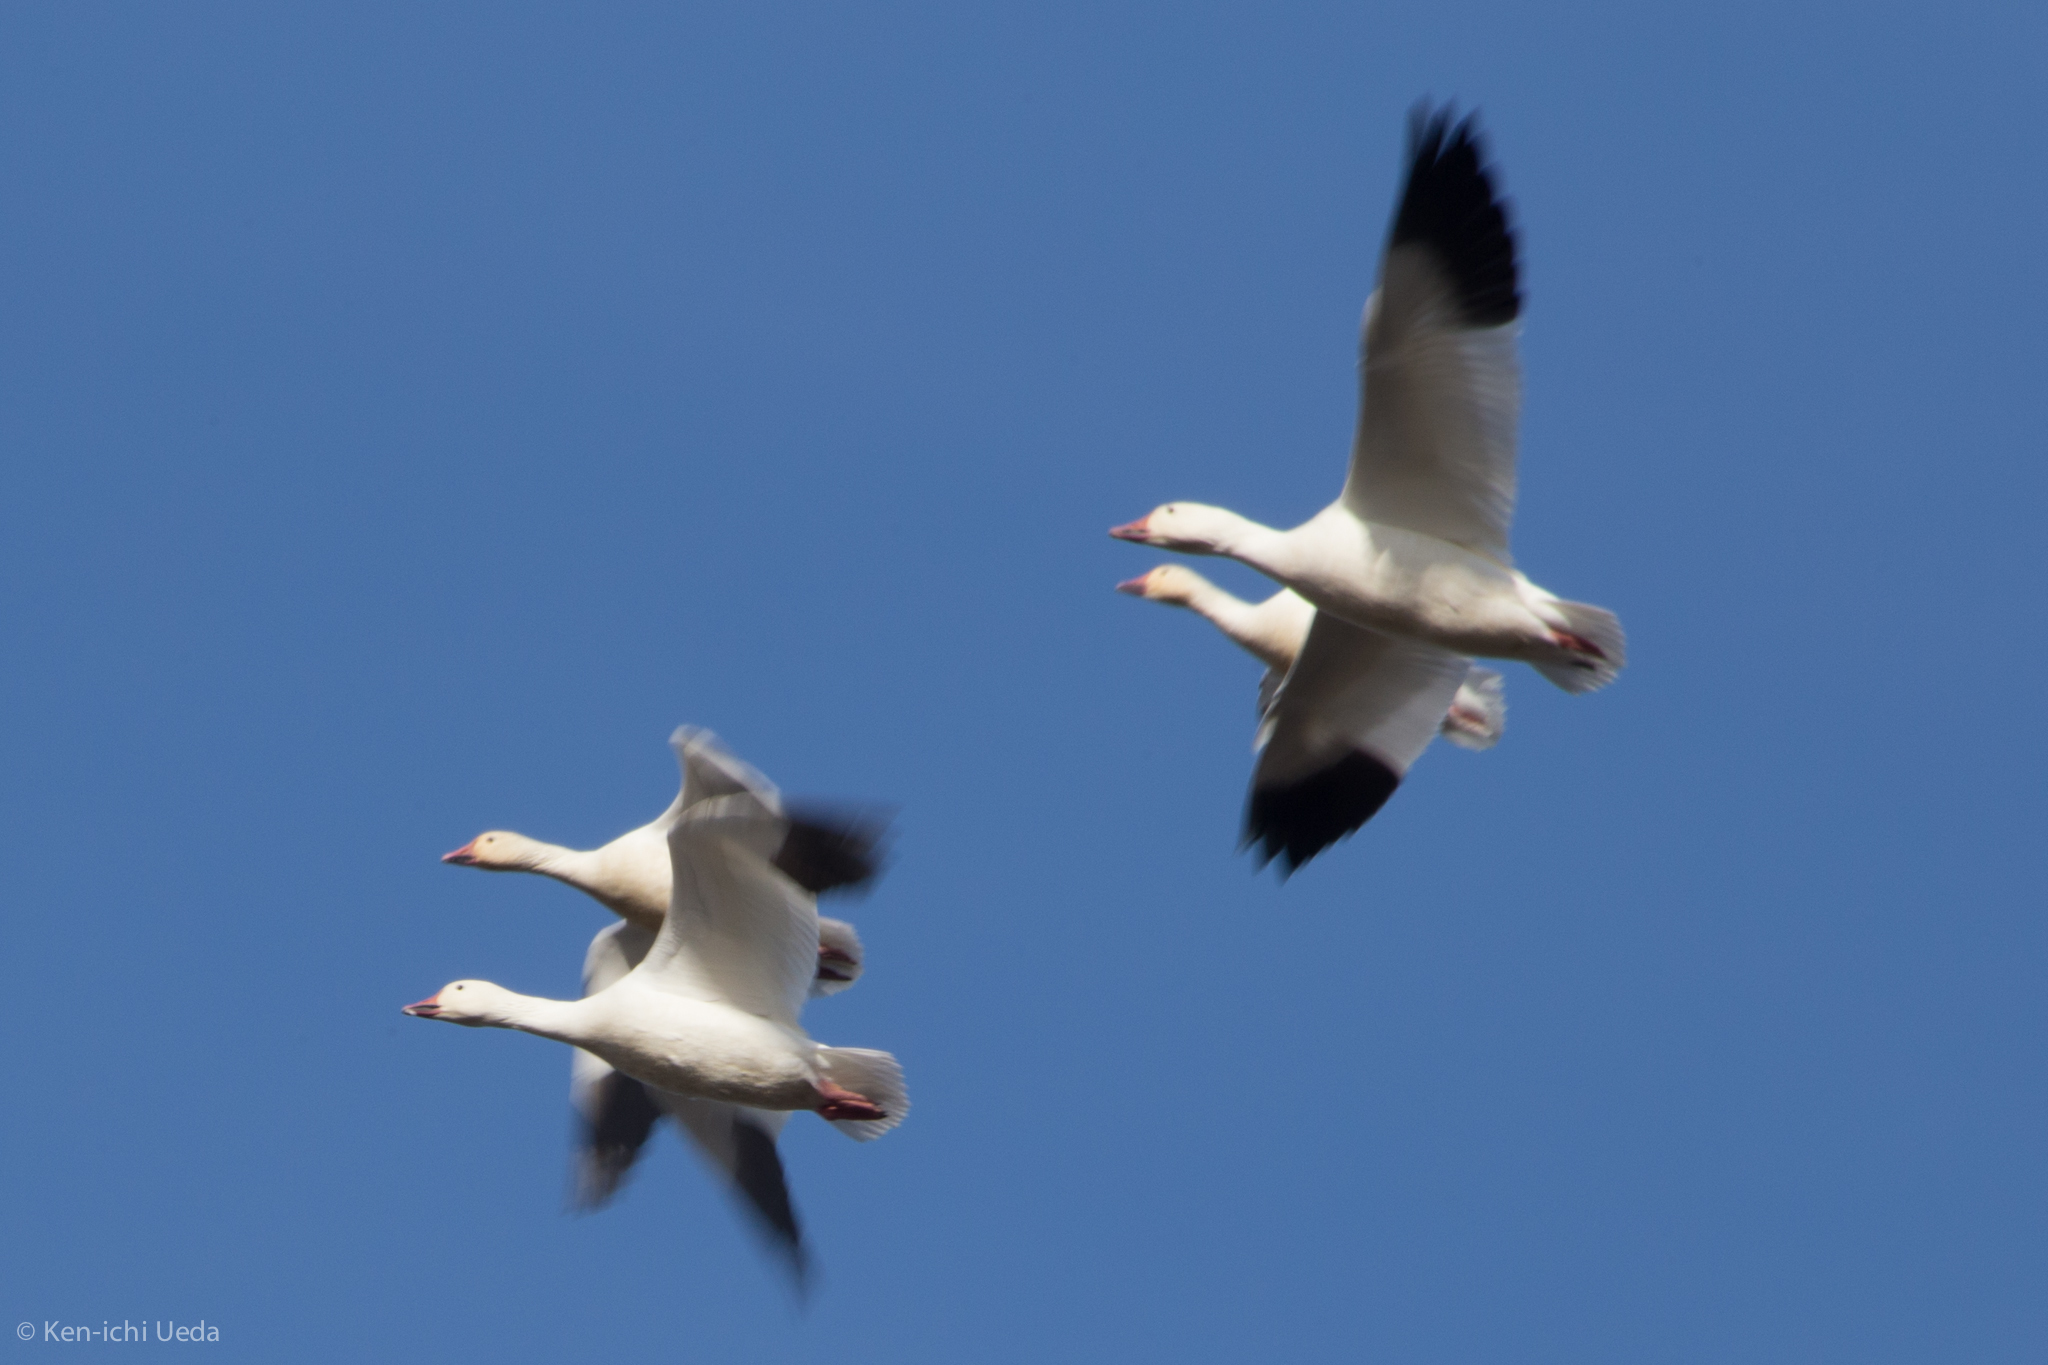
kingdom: Animalia
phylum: Chordata
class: Aves
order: Anseriformes
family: Anatidae
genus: Anser
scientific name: Anser caerulescens
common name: Snow goose
